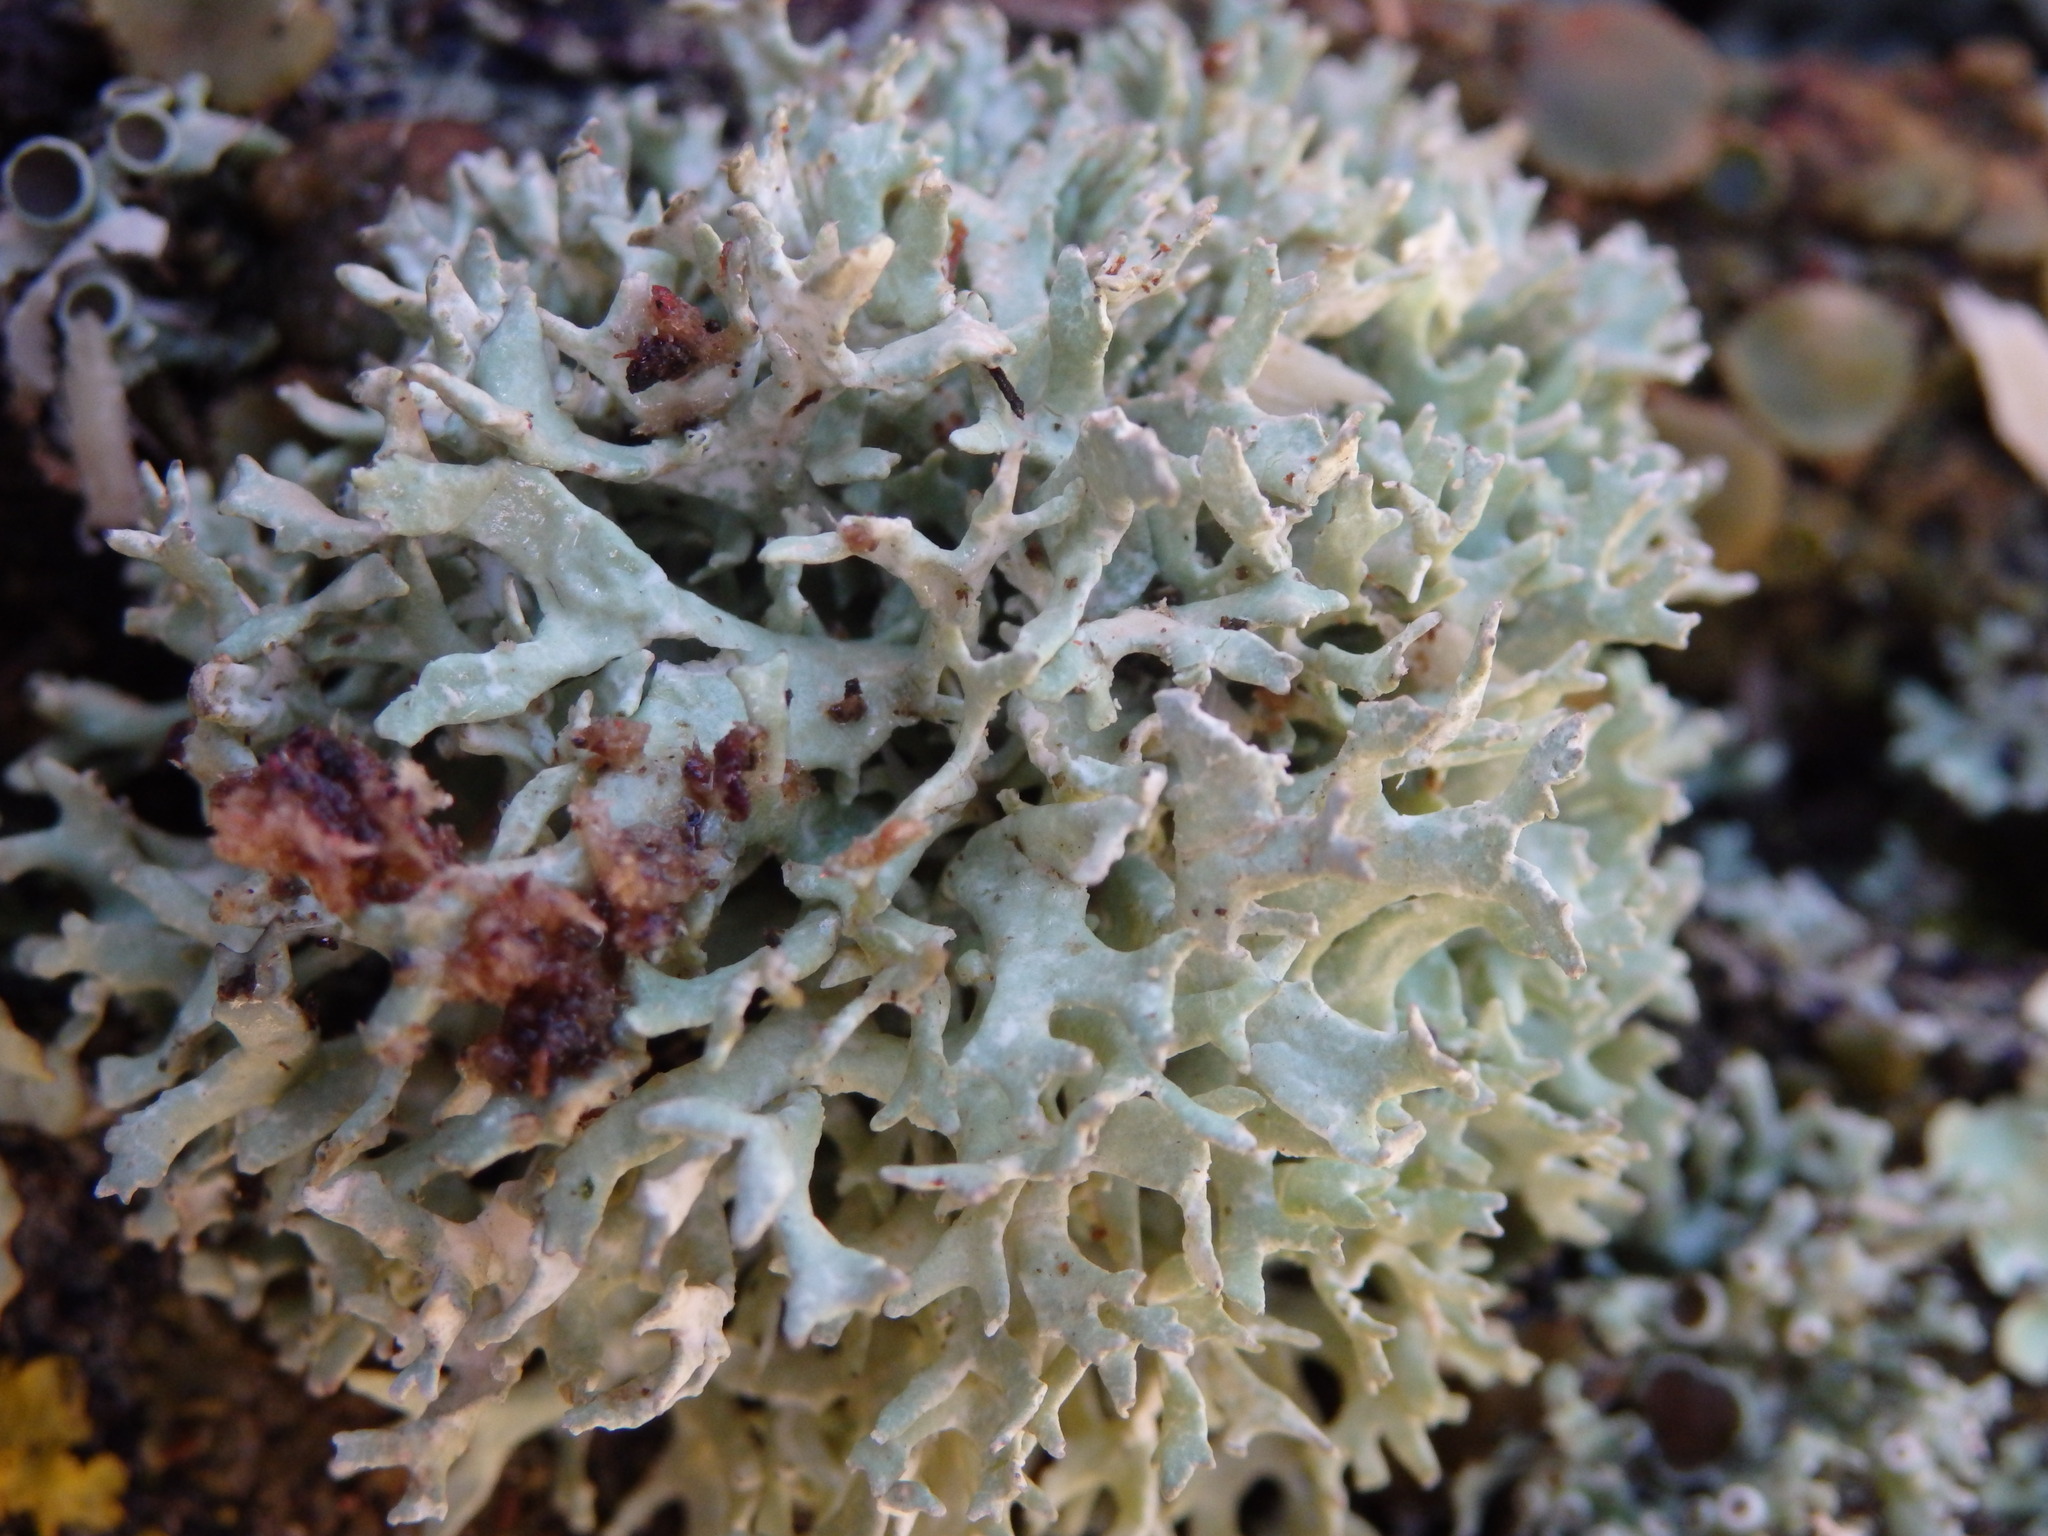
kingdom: Fungi
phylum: Ascomycota
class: Lecanoromycetes
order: Lecanorales
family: Parmeliaceae
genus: Evernia
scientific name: Evernia prunastri
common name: Oak moss
